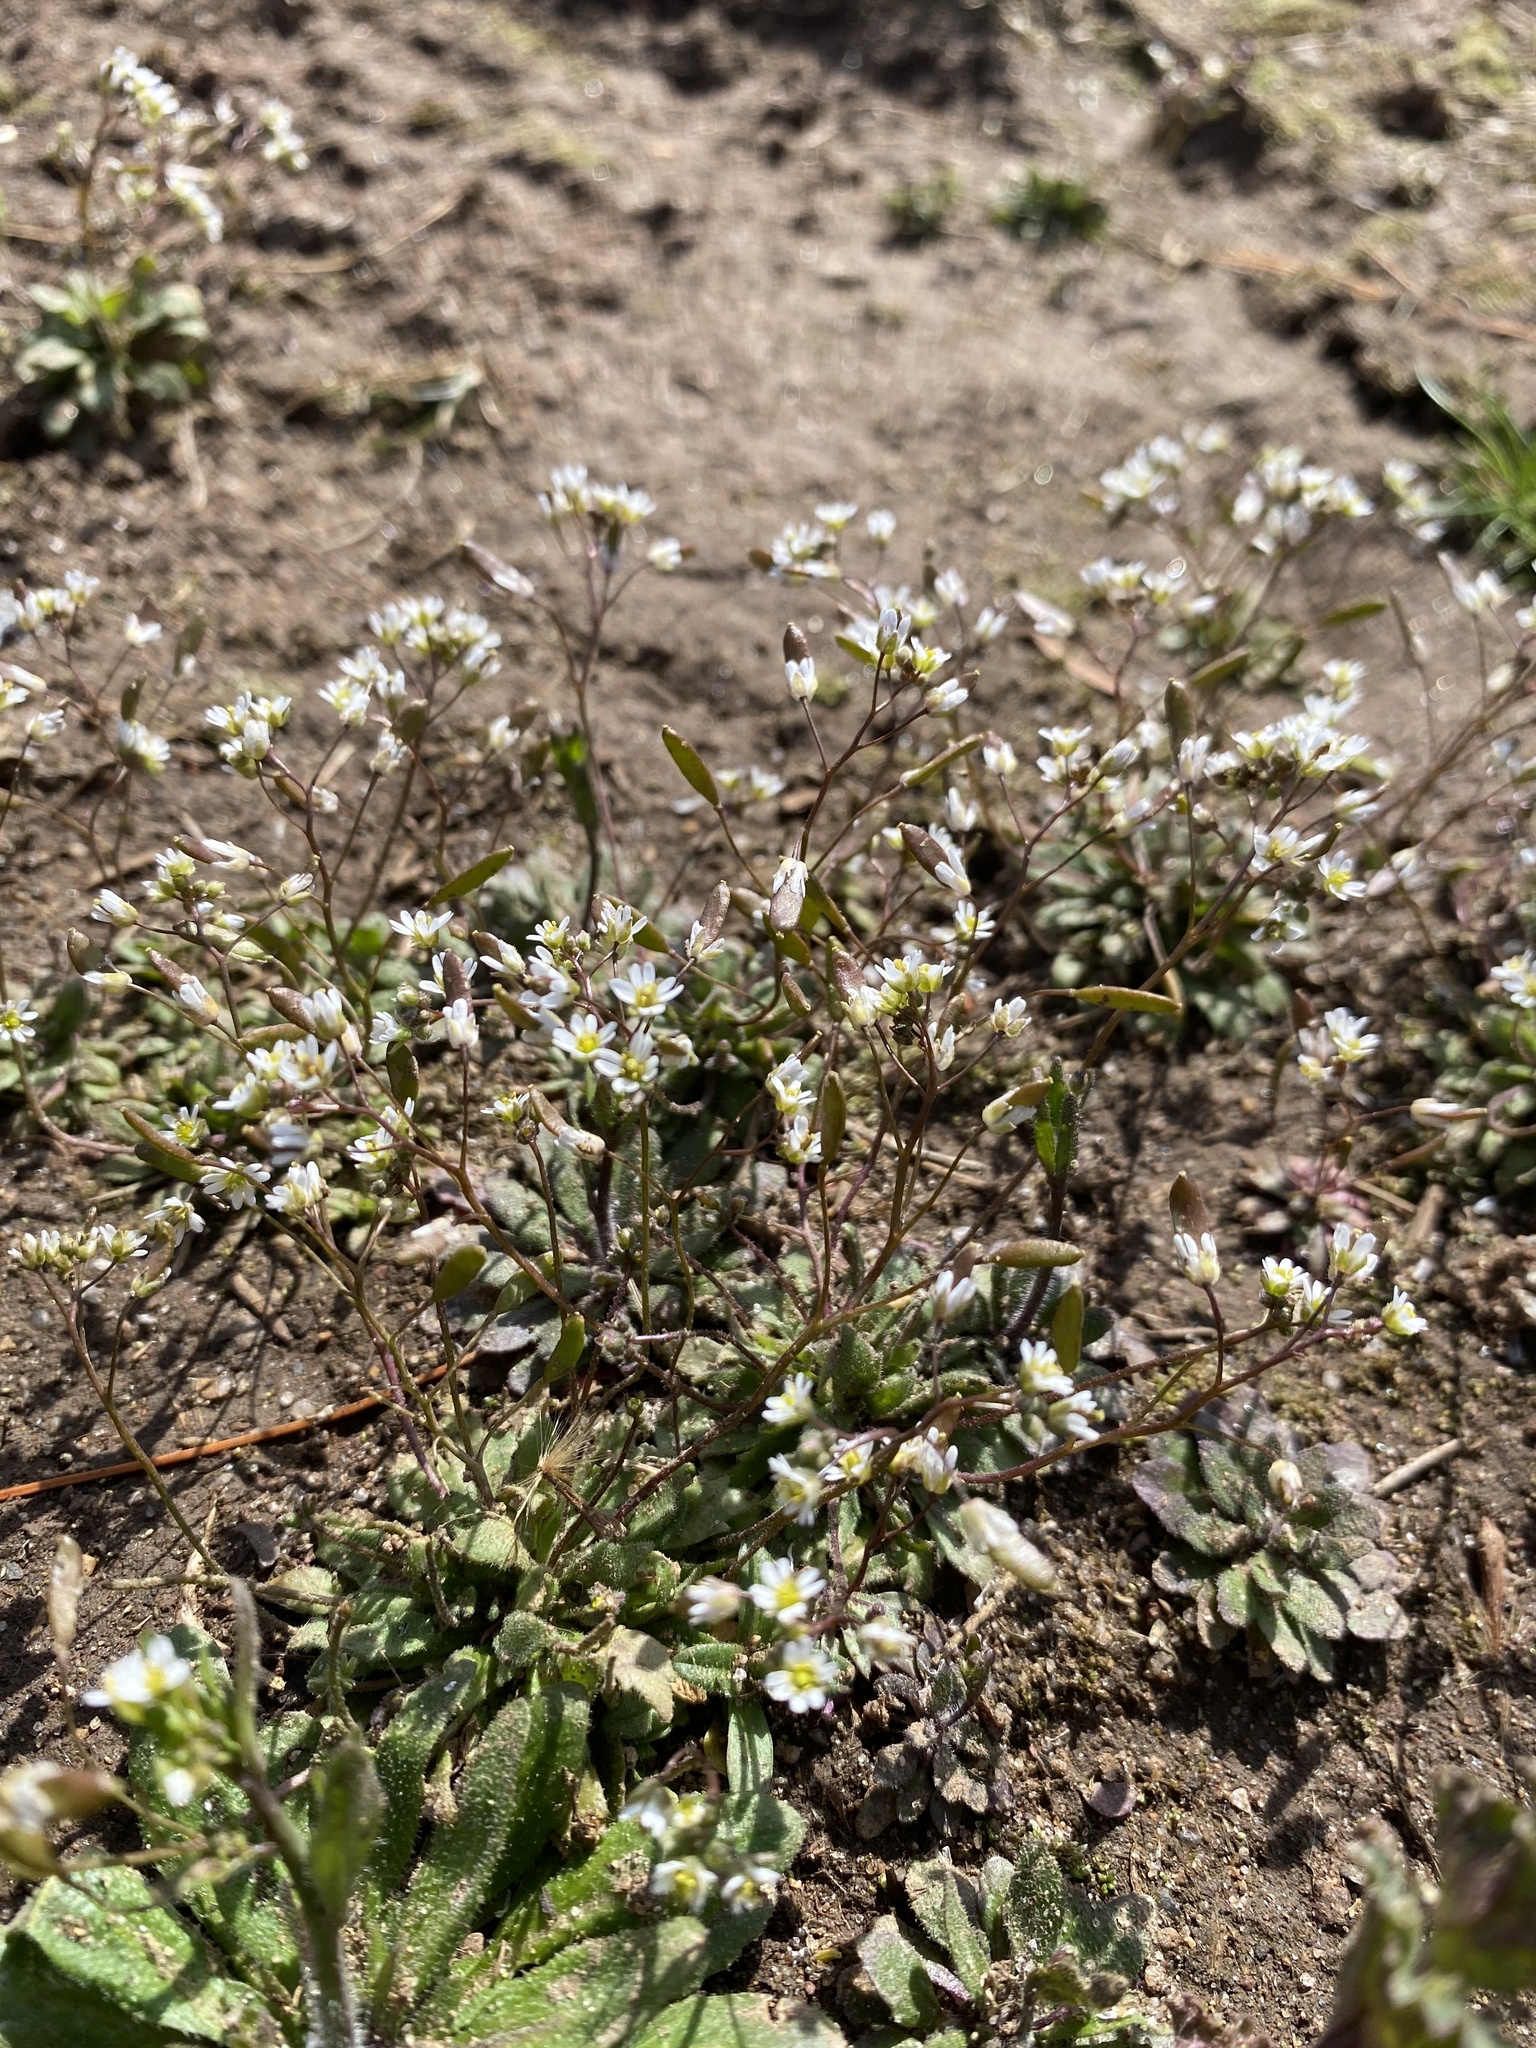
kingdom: Plantae
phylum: Tracheophyta
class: Magnoliopsida
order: Brassicales
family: Brassicaceae
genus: Draba
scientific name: Draba verna
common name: Spring draba
